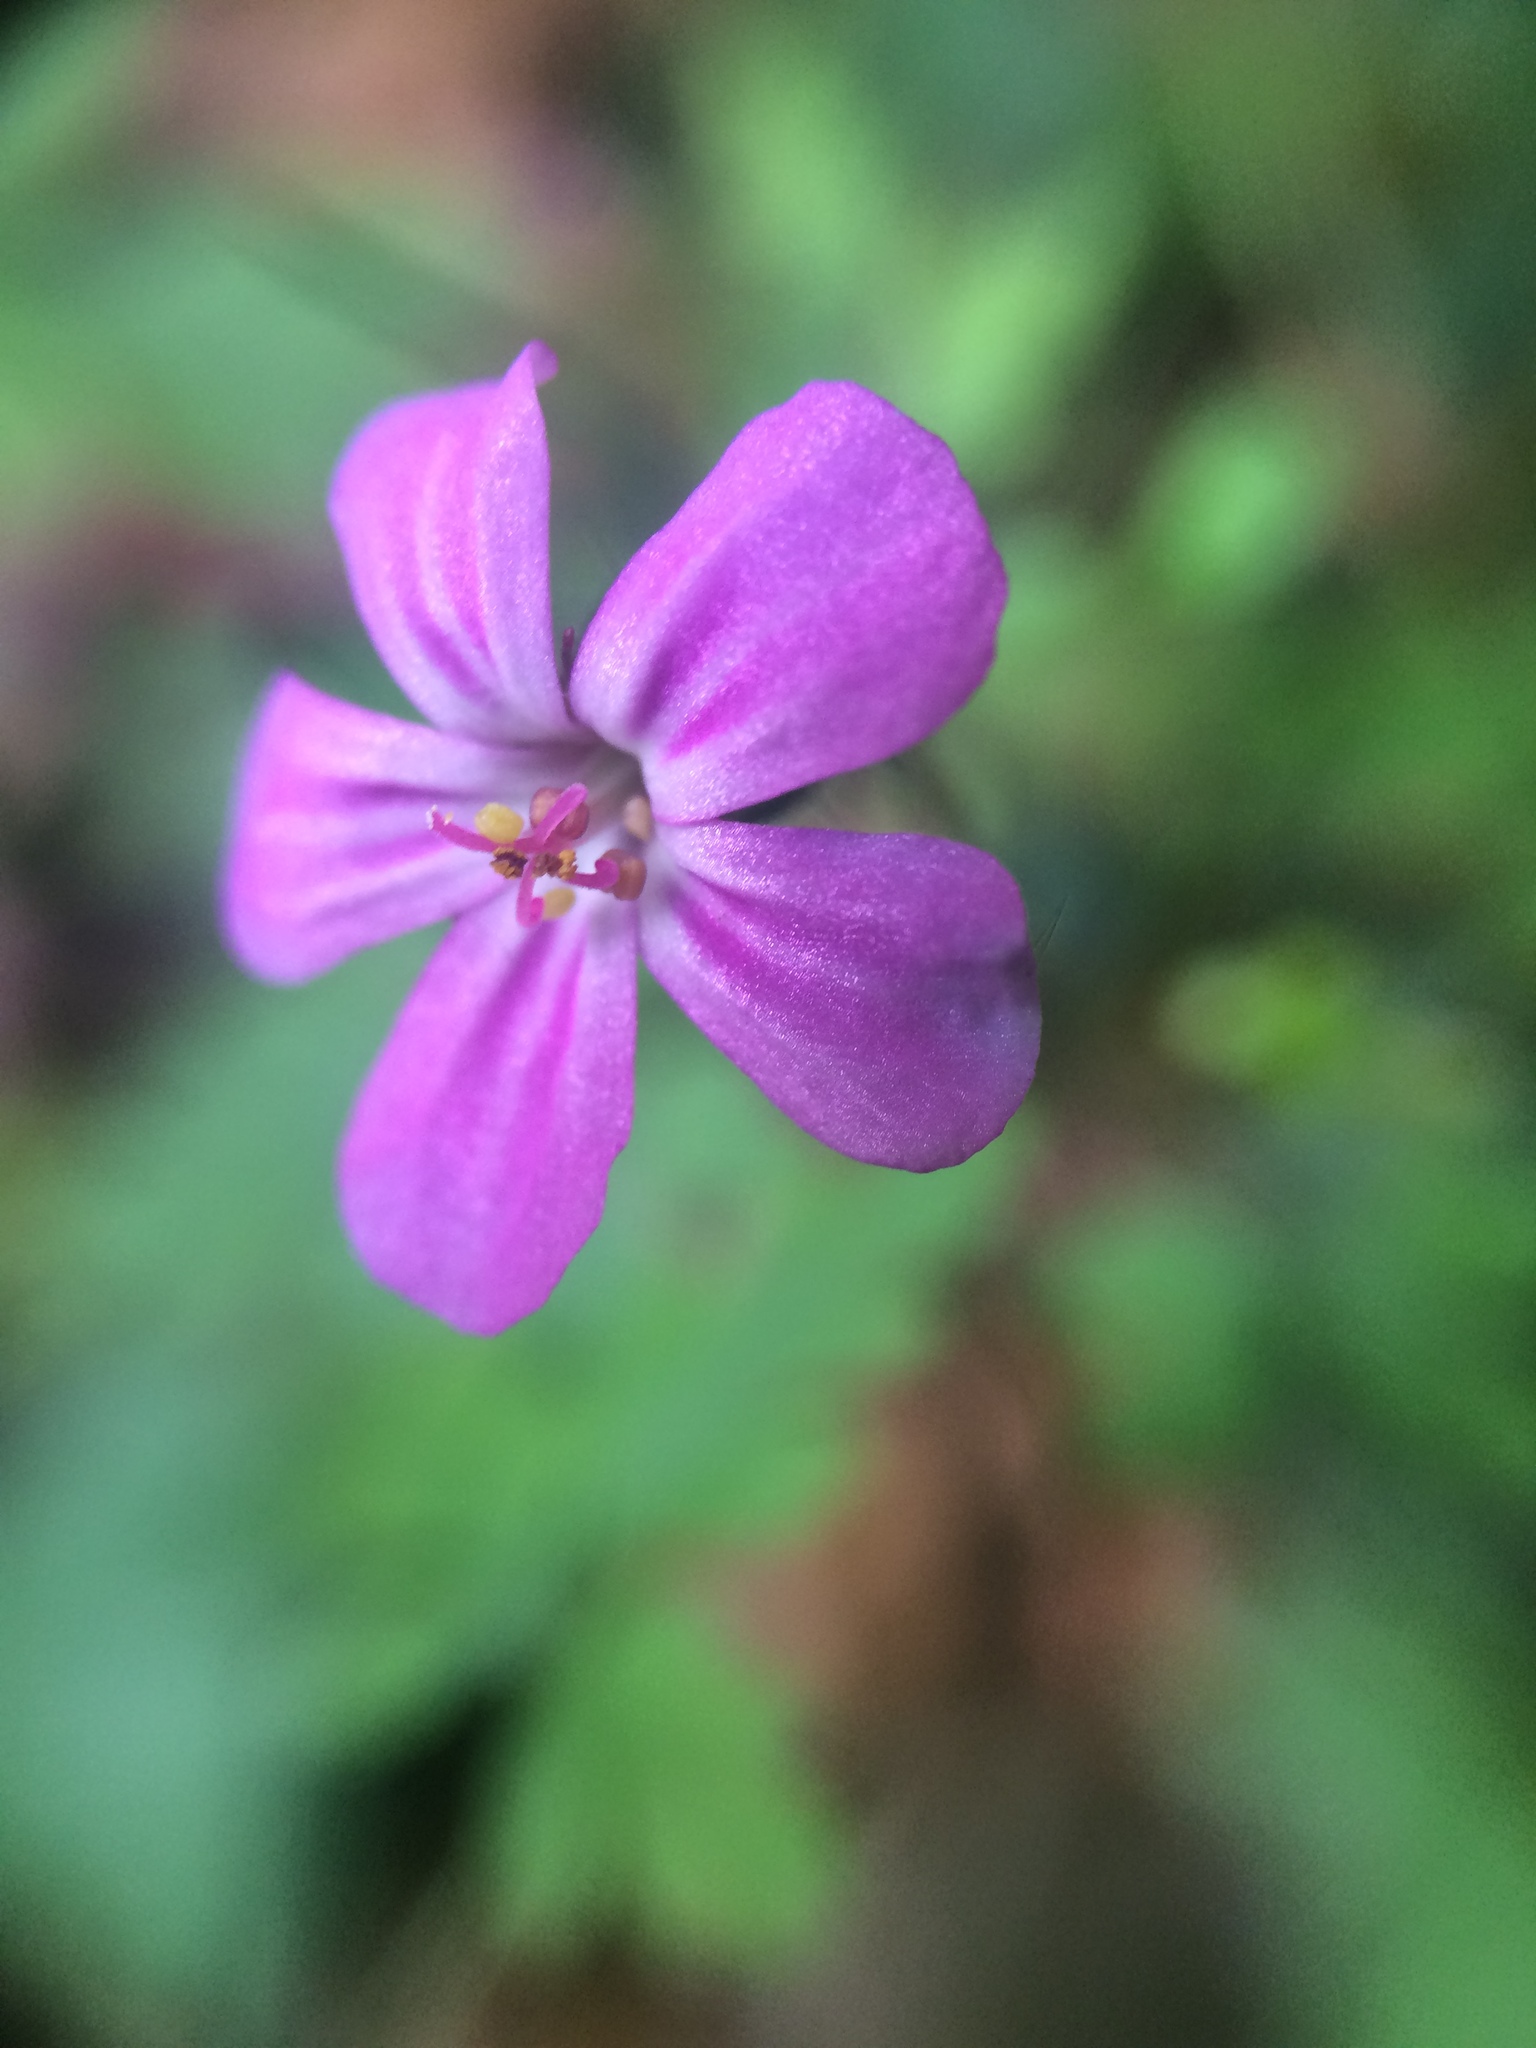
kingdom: Plantae
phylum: Tracheophyta
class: Magnoliopsida
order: Geraniales
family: Geraniaceae
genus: Geranium
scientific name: Geranium robertianum
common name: Herb-robert
